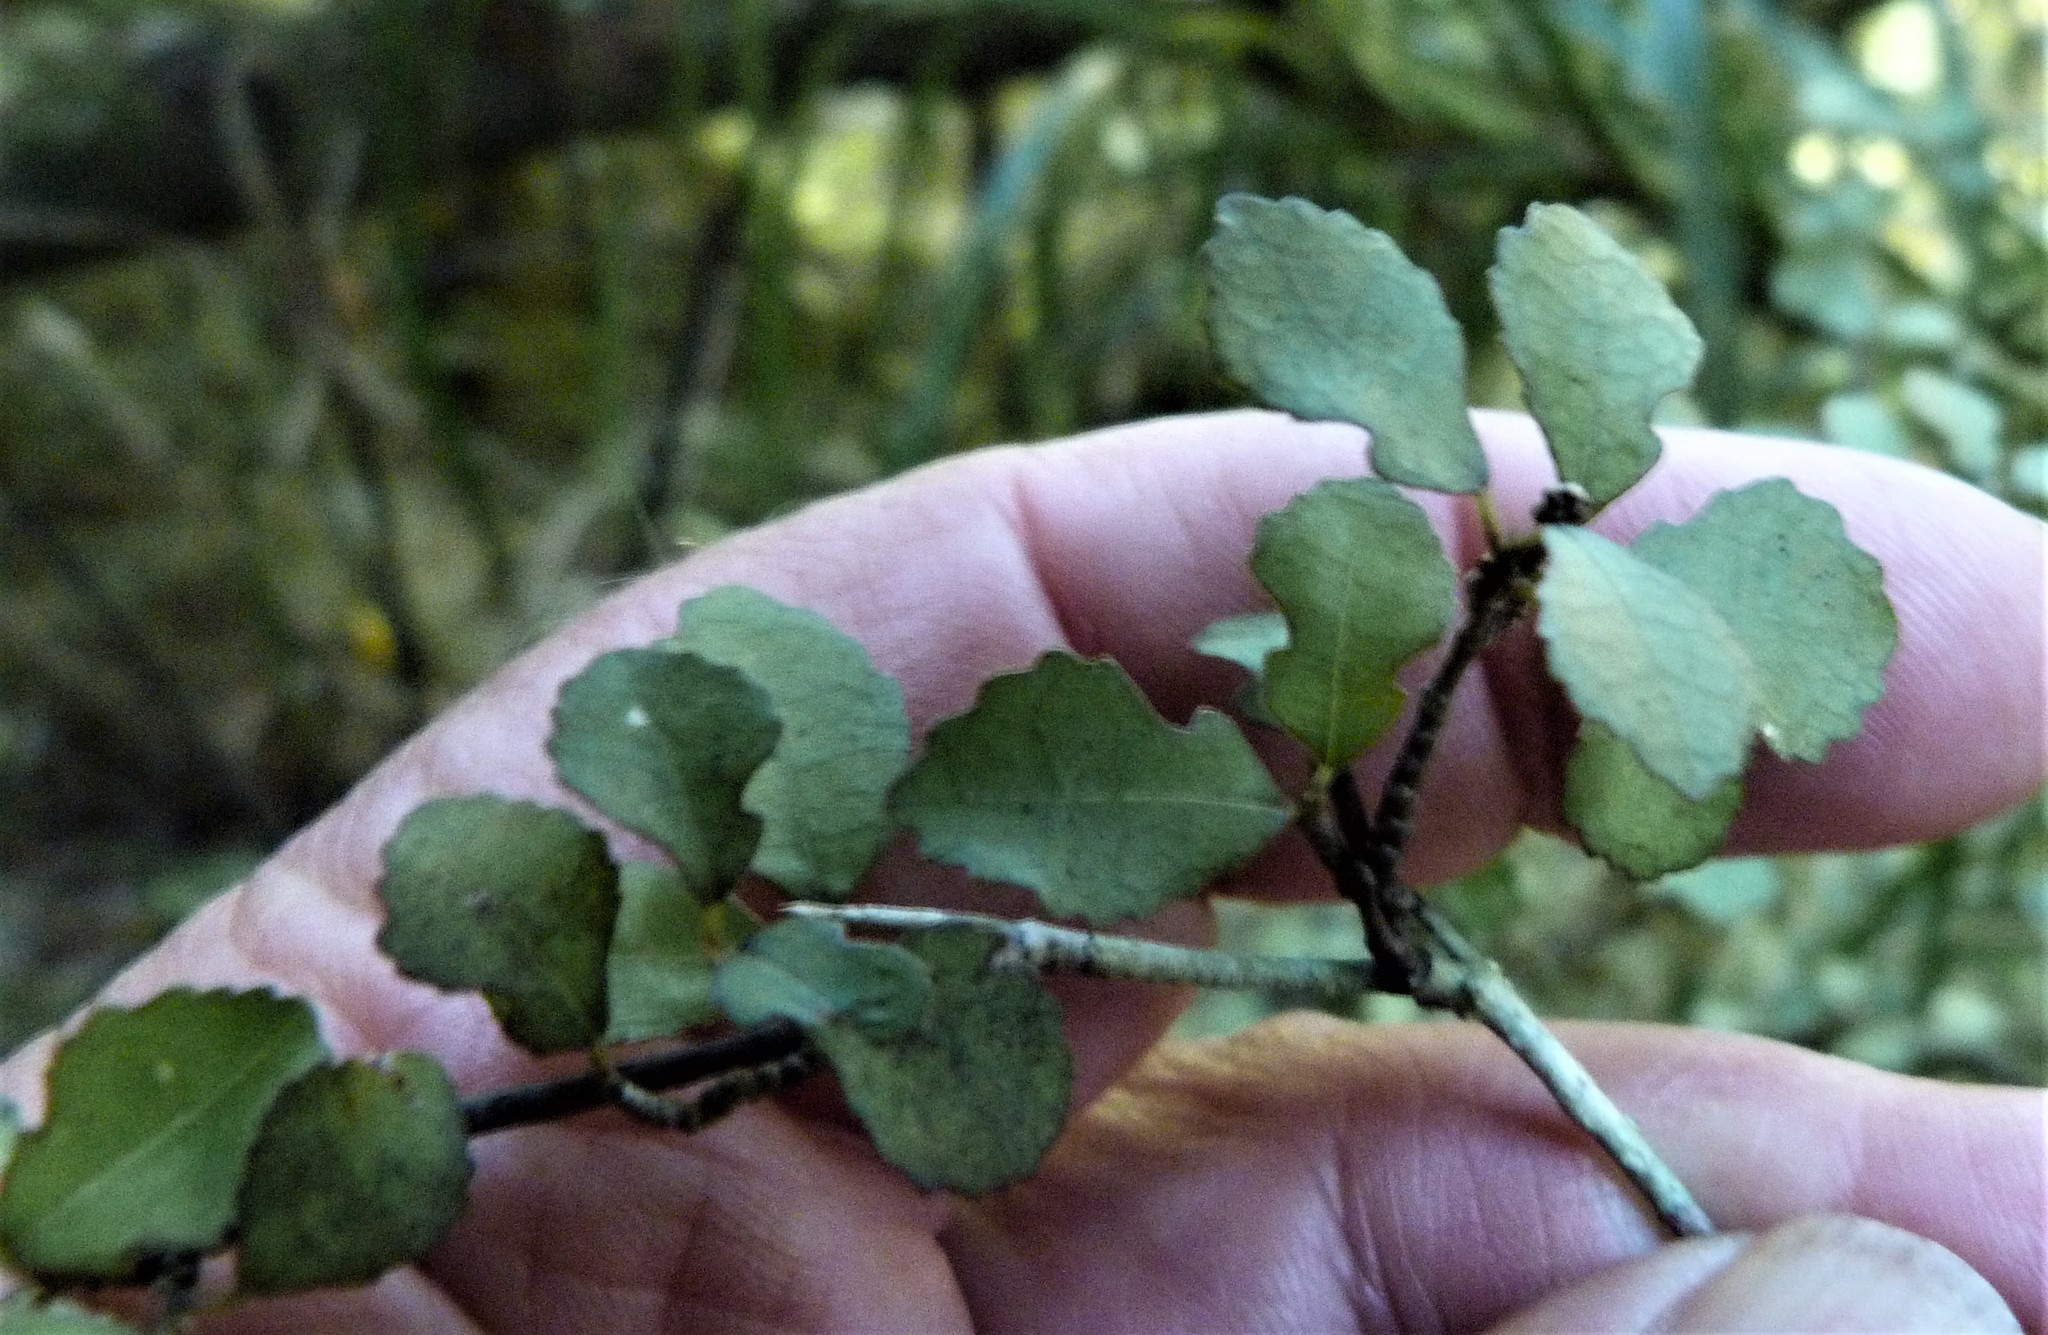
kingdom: Plantae
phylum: Tracheophyta
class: Magnoliopsida
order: Rosales
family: Moraceae
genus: Paratrophis
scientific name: Paratrophis microphylla
